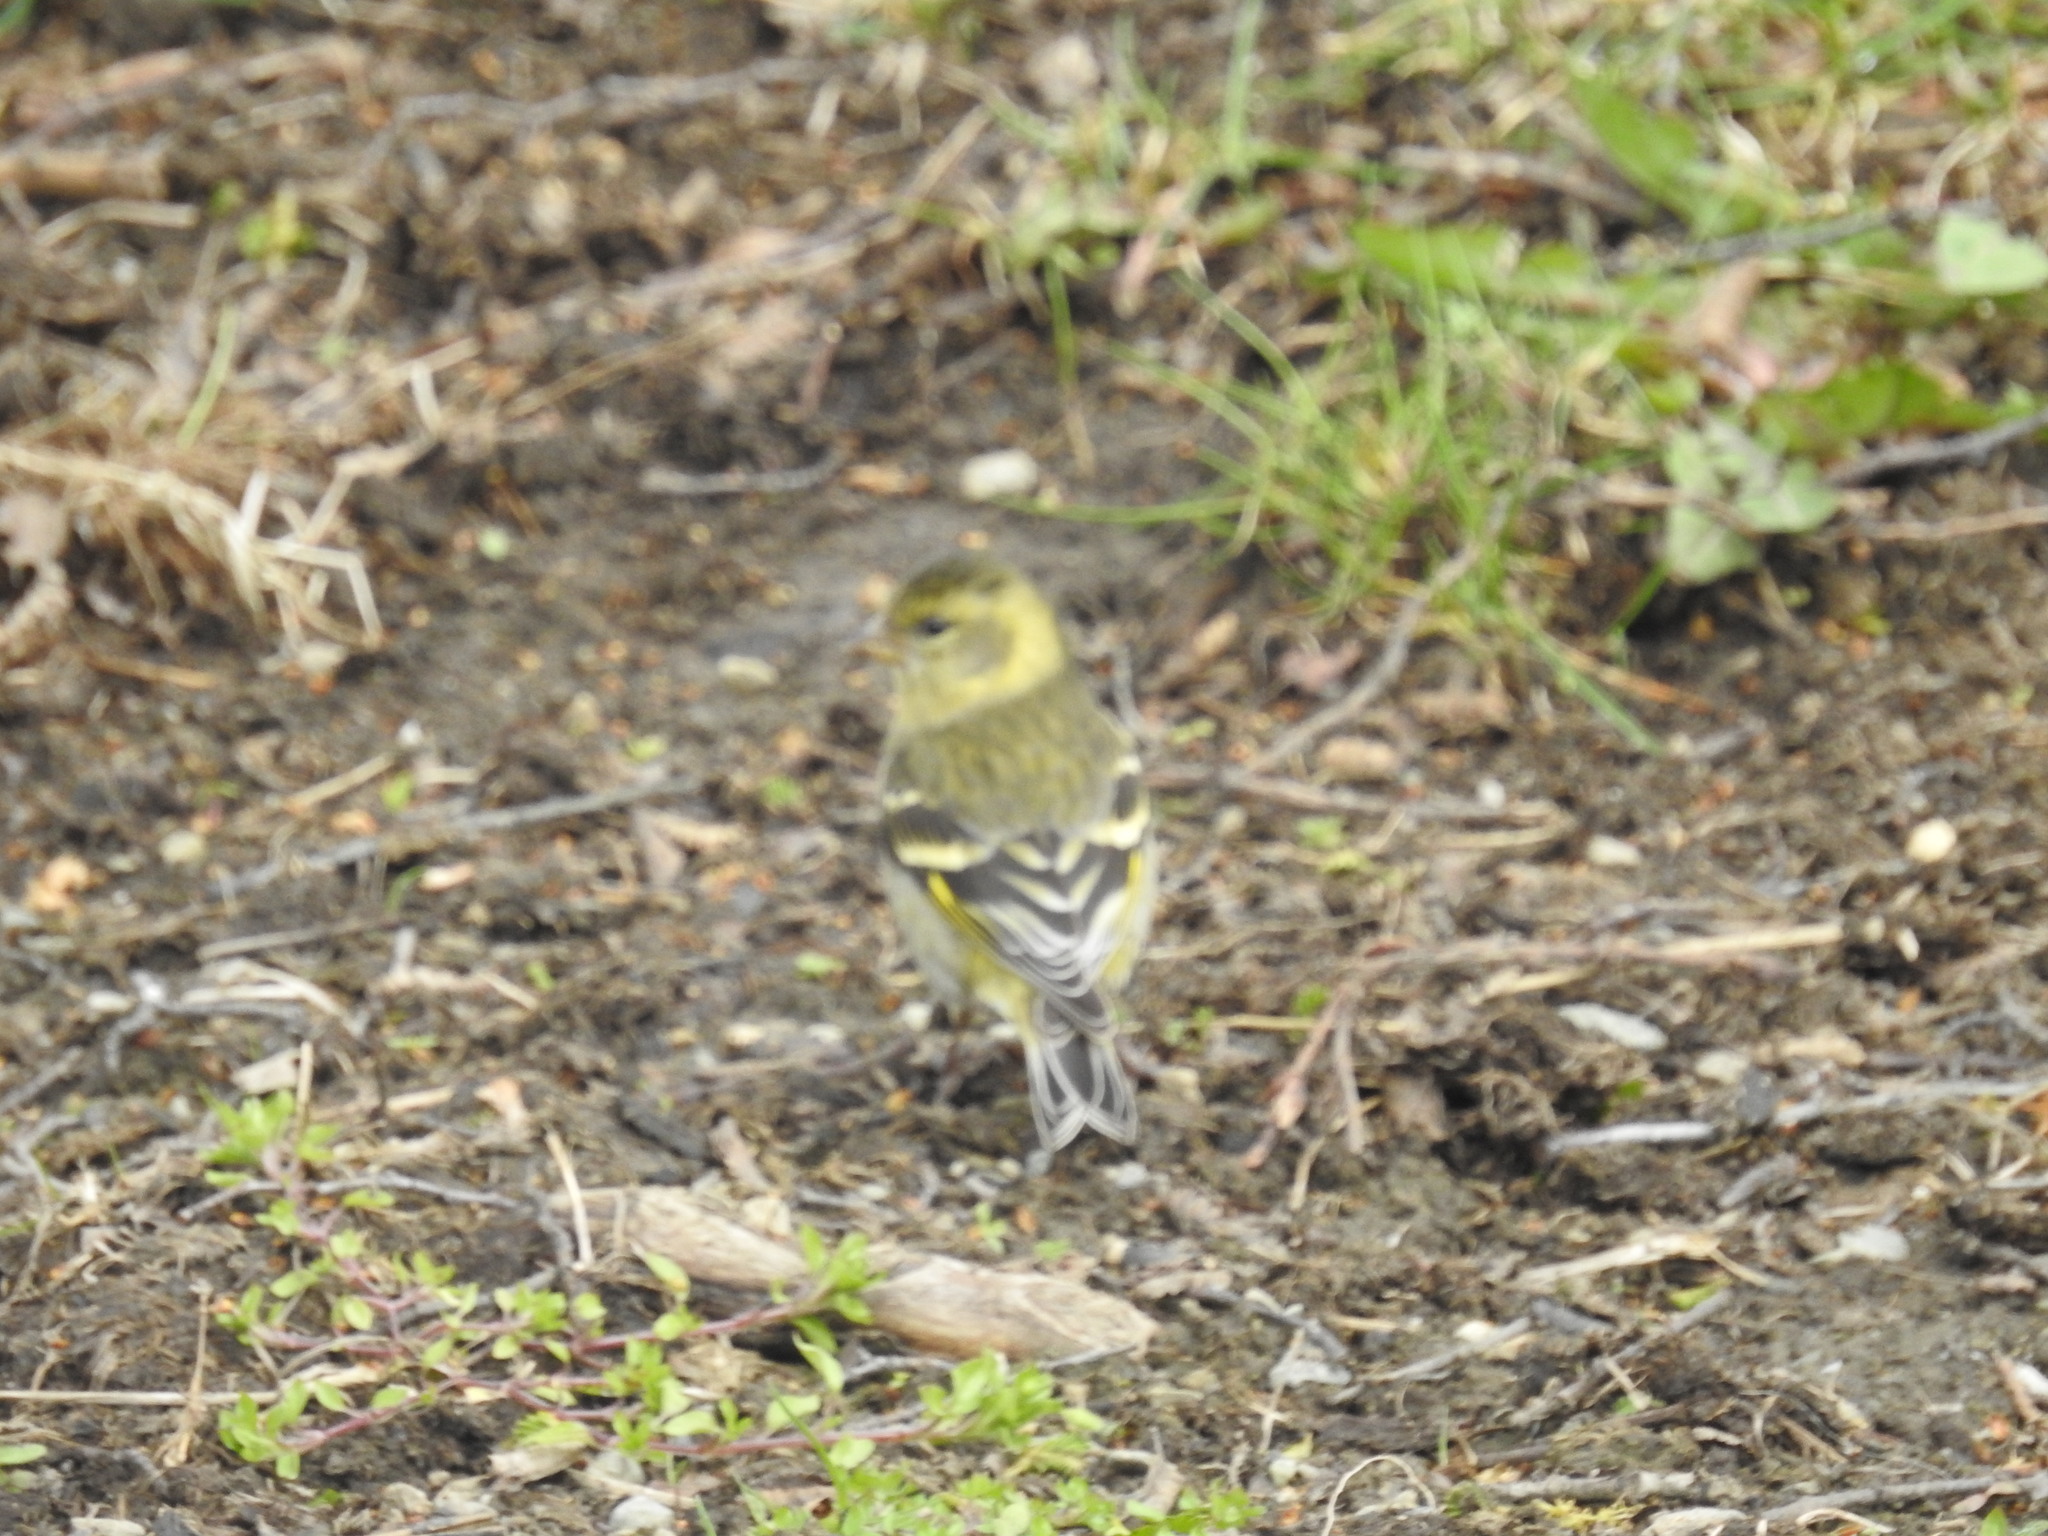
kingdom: Animalia
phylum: Chordata
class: Aves
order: Passeriformes
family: Fringillidae
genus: Spinus
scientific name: Spinus barbatus
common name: Black-chinned siskin
